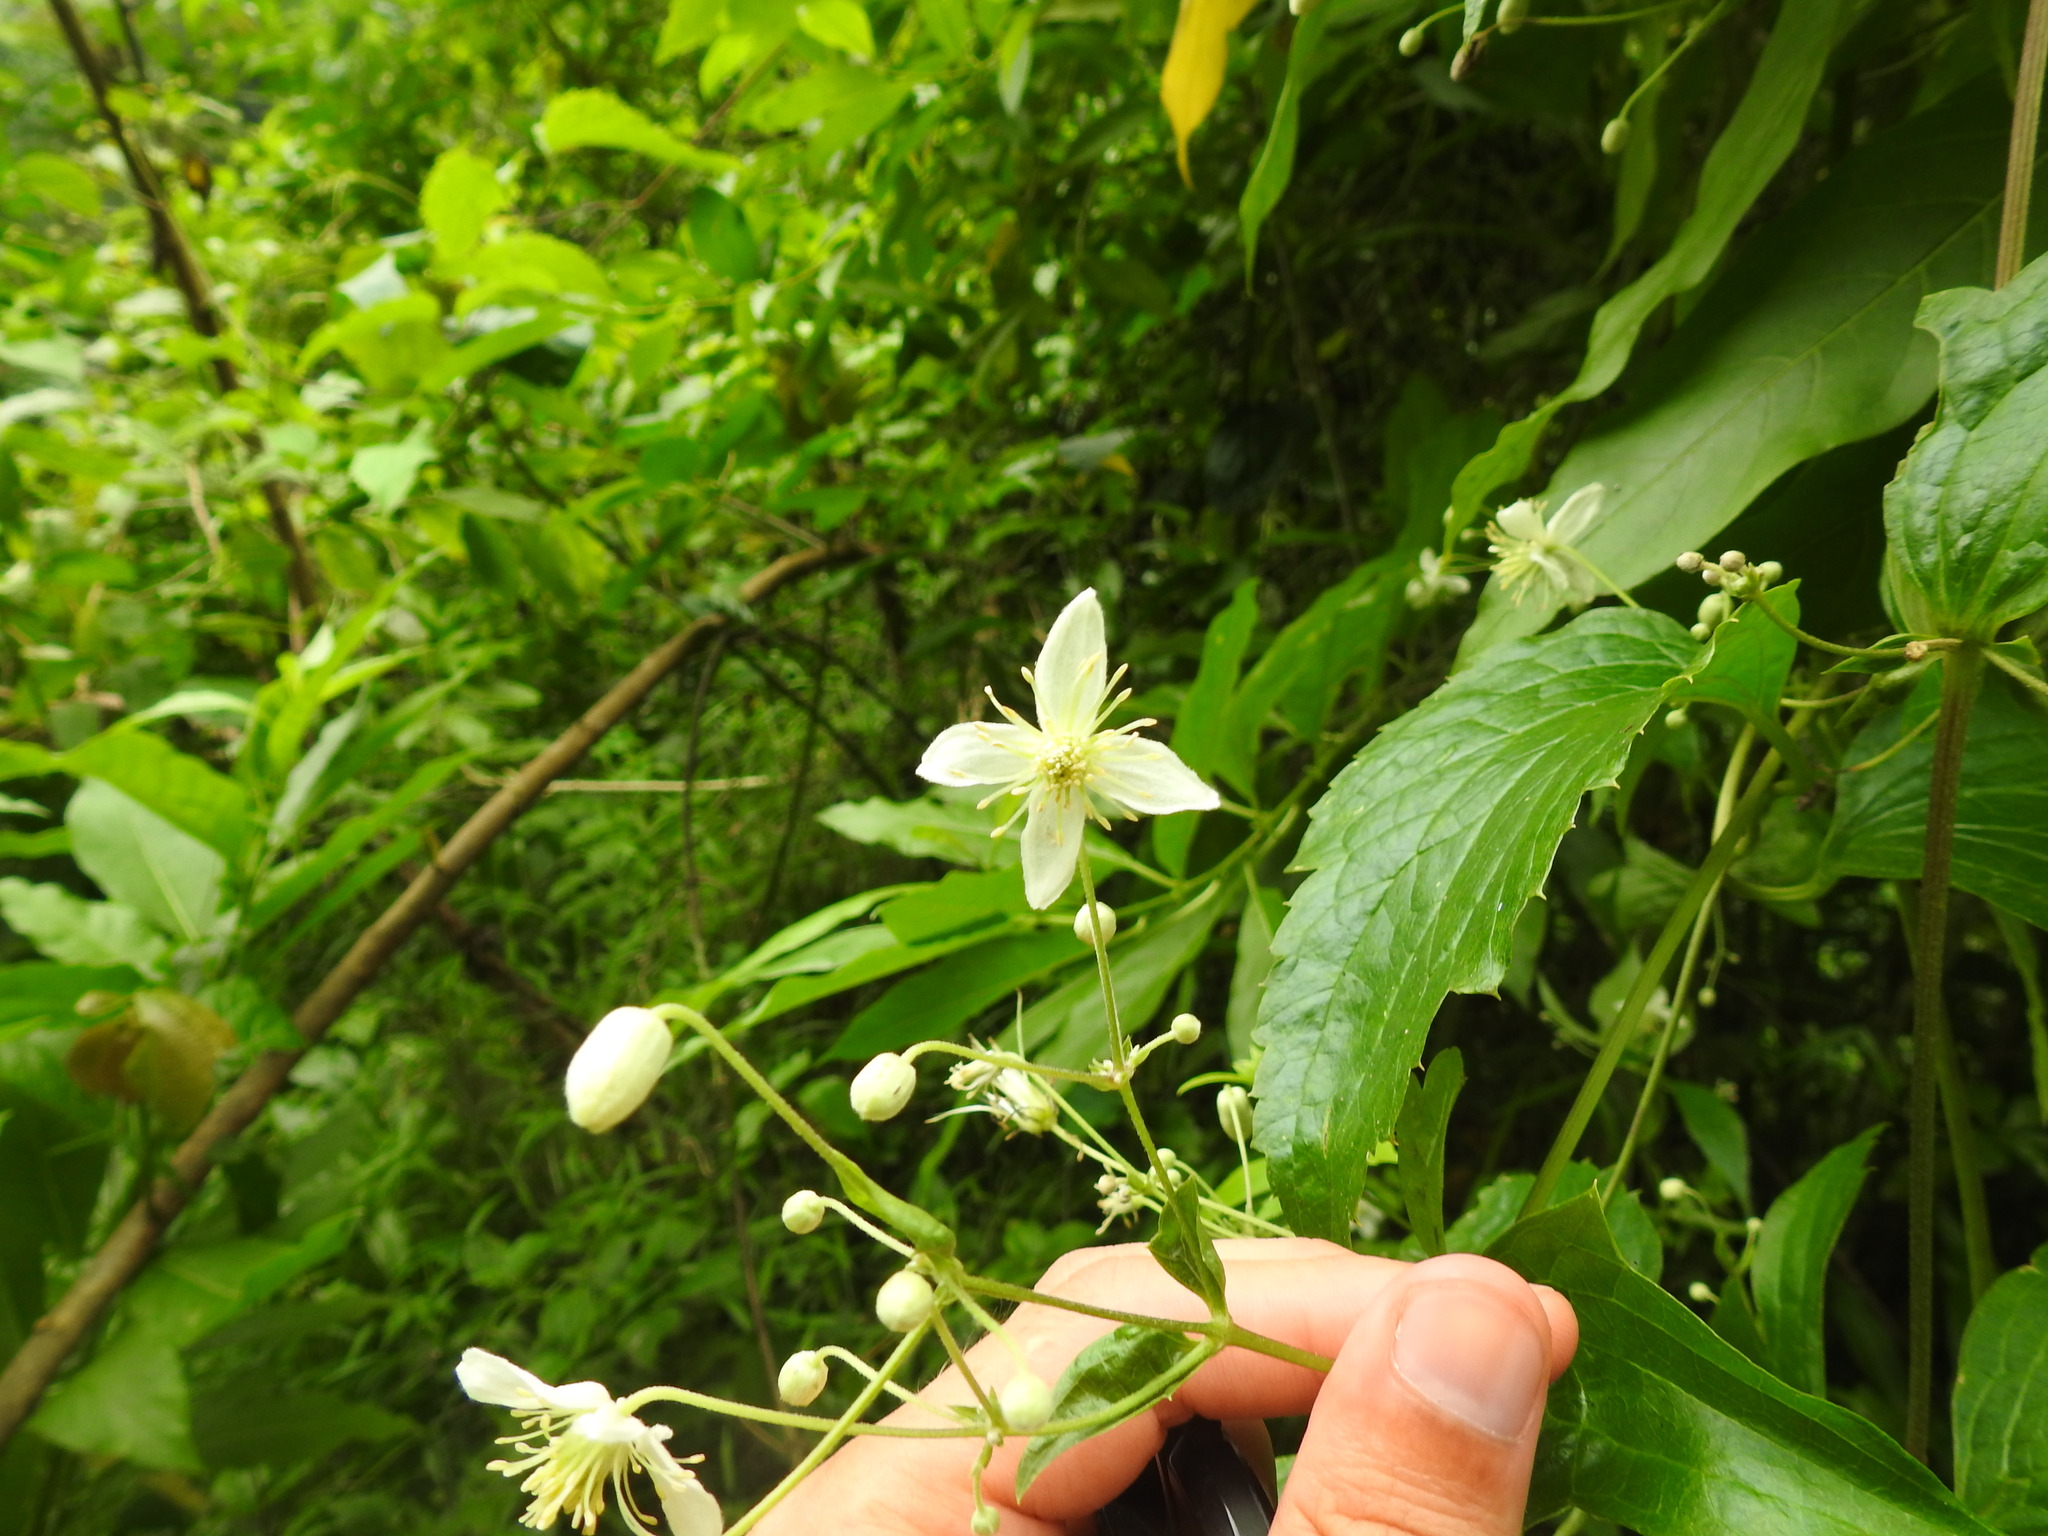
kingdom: Plantae
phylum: Tracheophyta
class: Magnoliopsida
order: Ranunculales
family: Ranunculaceae
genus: Clematis
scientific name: Clematis hirsuta
